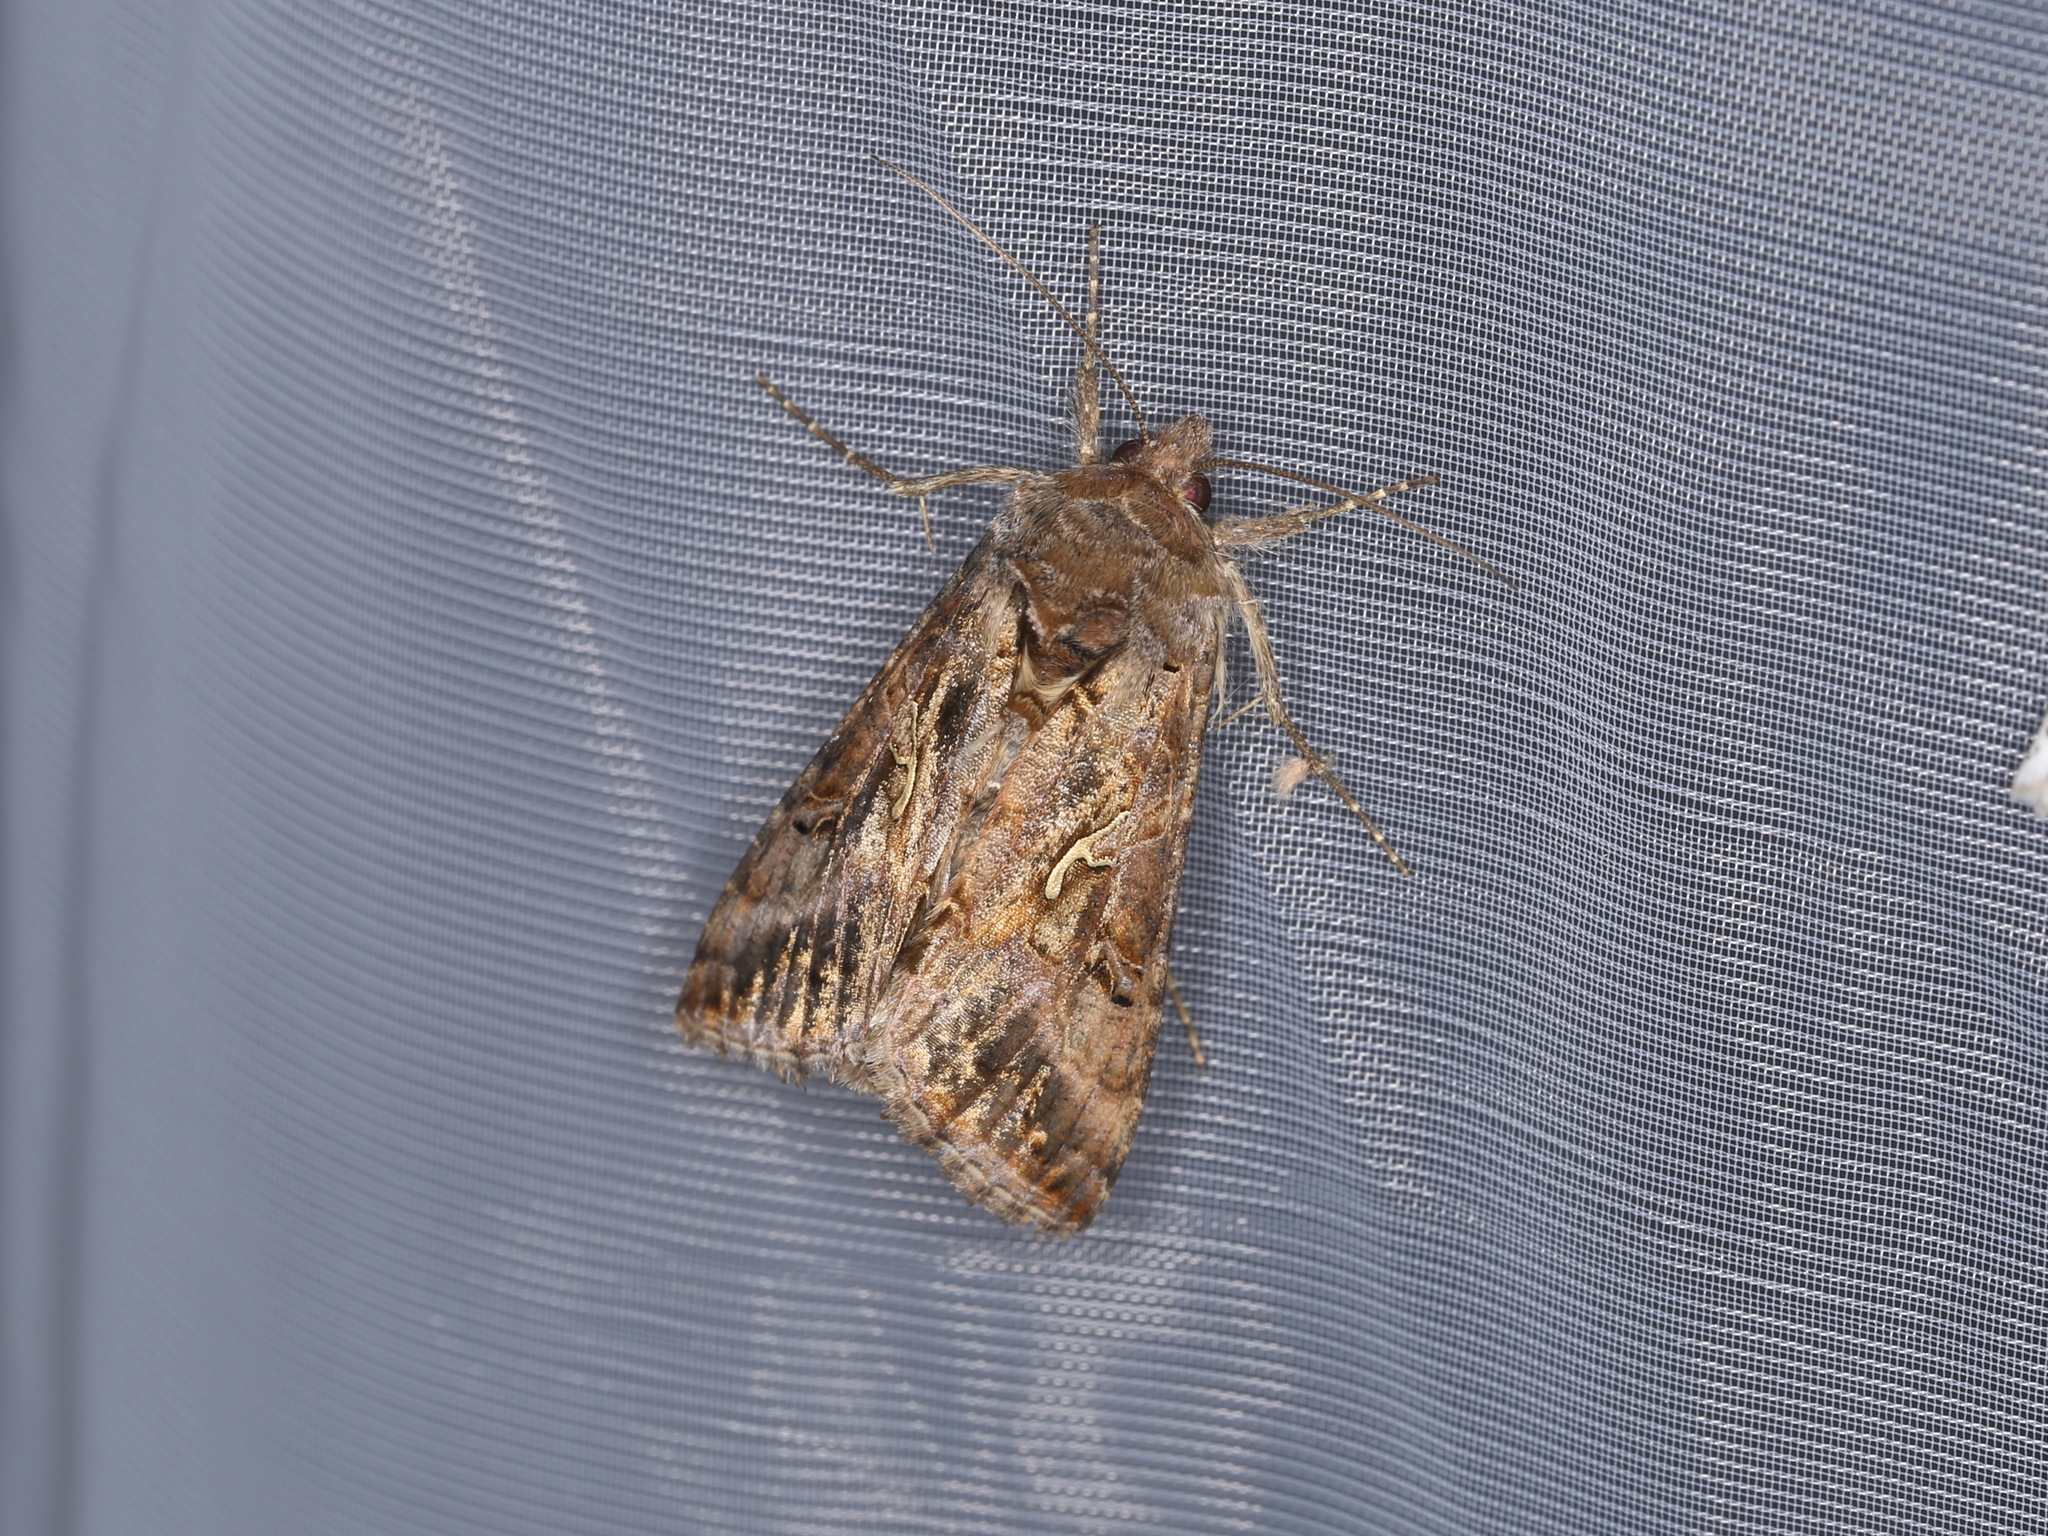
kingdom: Animalia
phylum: Arthropoda
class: Insecta
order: Lepidoptera
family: Noctuidae
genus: Autographa
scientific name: Autographa gamma
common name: Silver y
